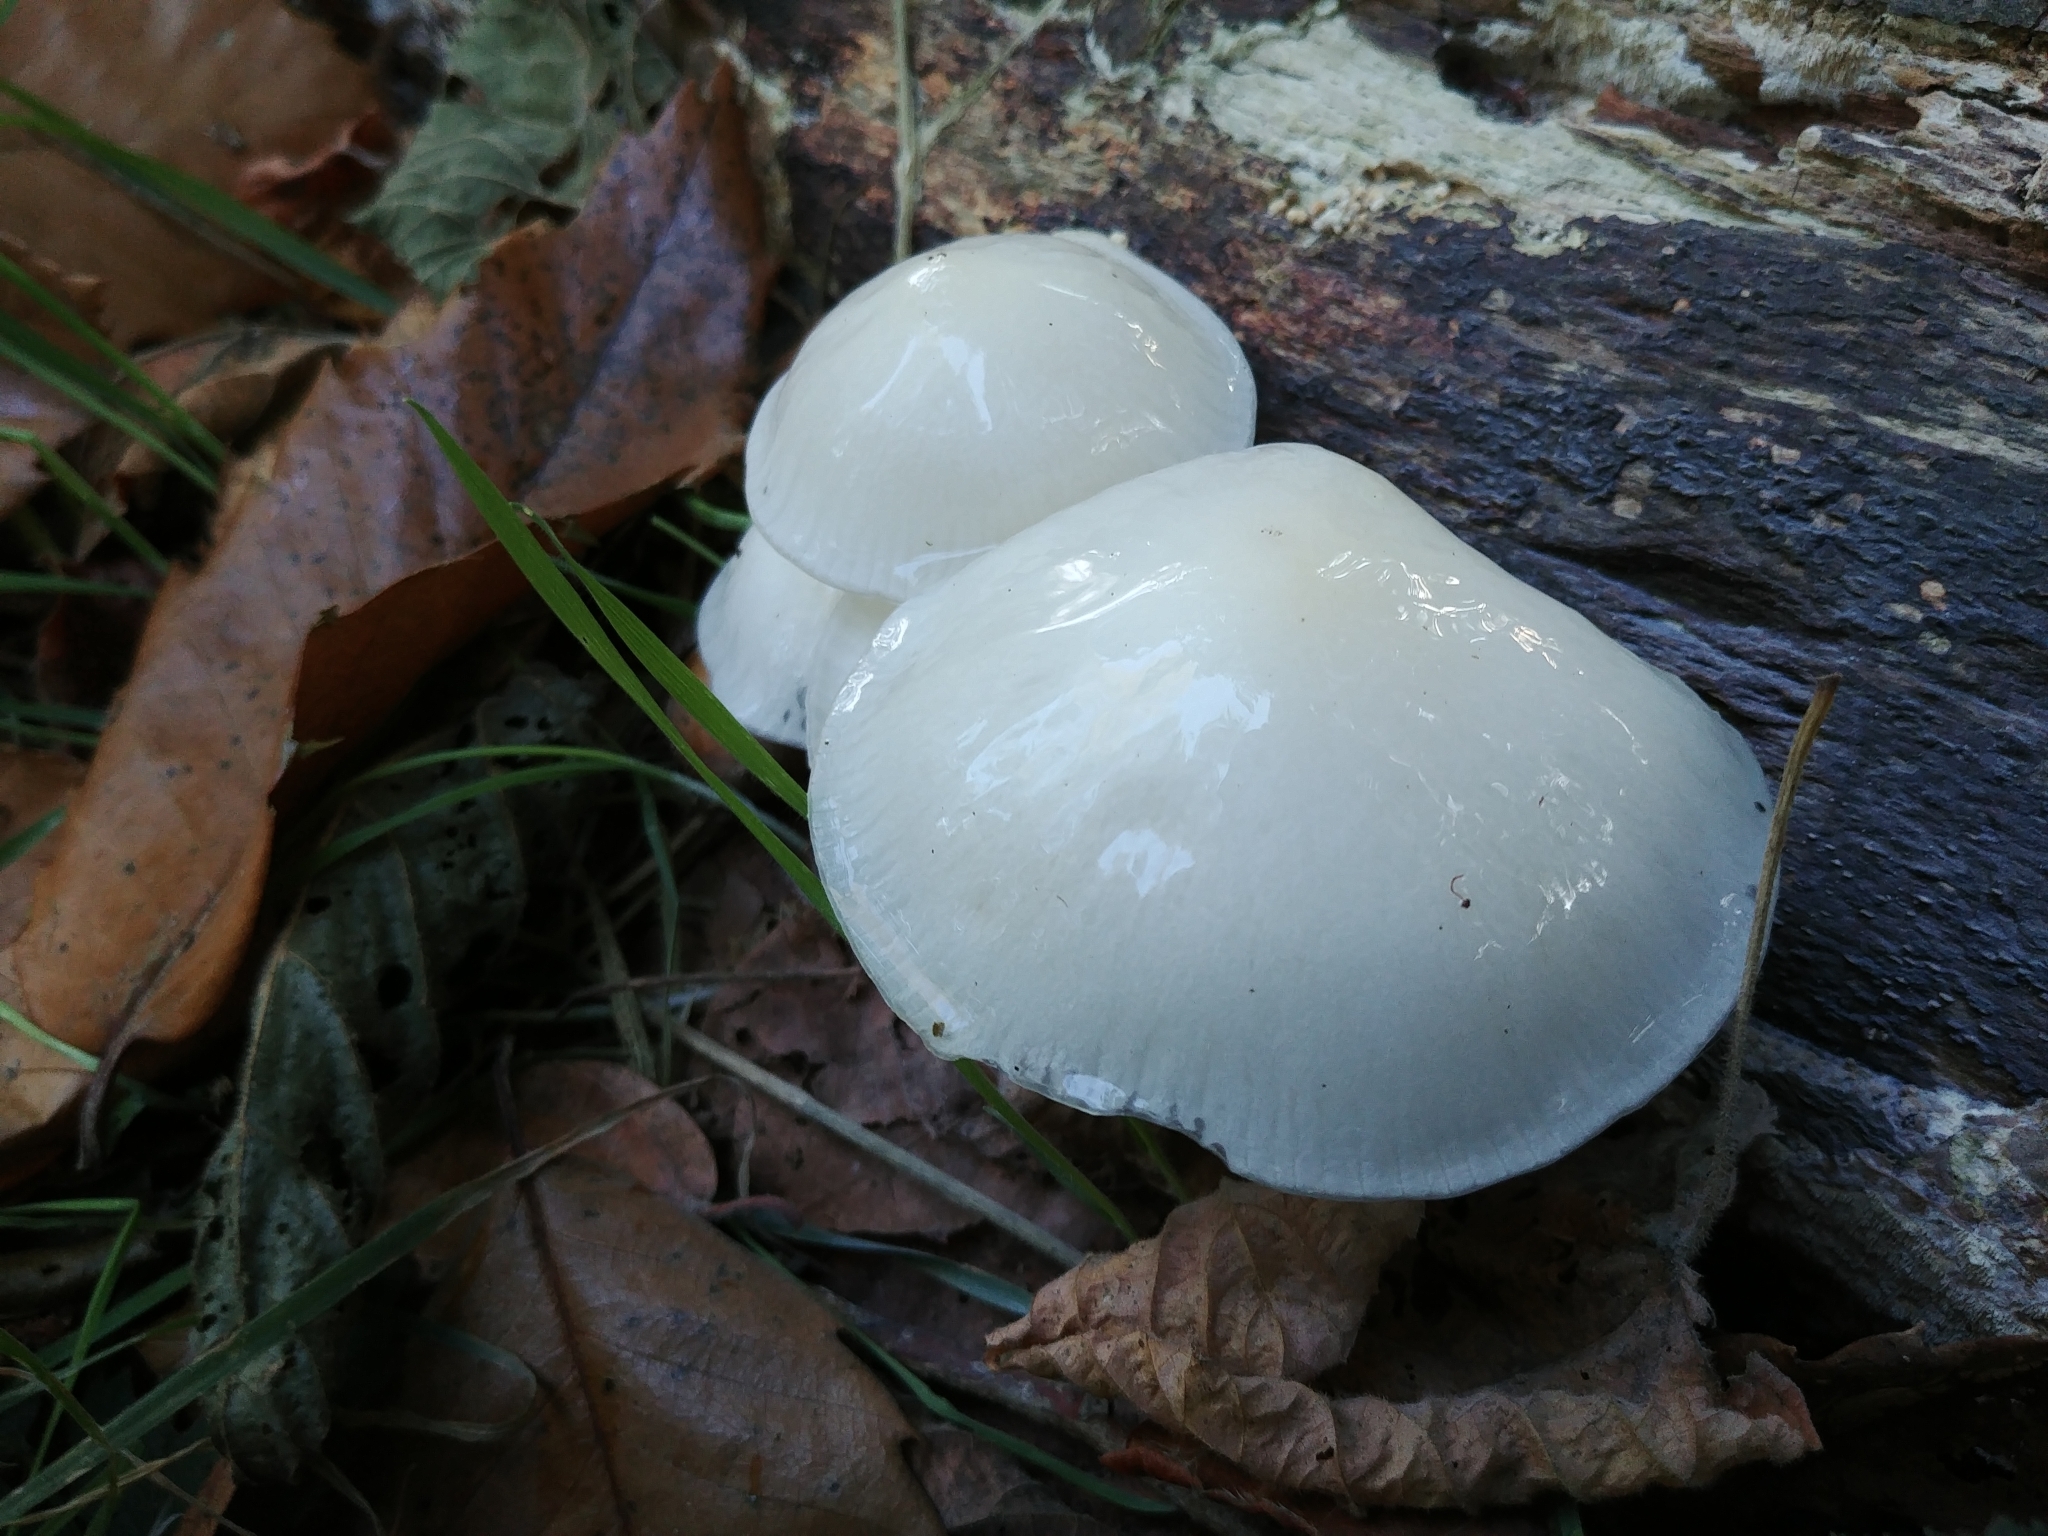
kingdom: Fungi
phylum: Basidiomycota
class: Agaricomycetes
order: Agaricales
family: Physalacriaceae
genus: Mucidula
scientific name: Mucidula mucida
